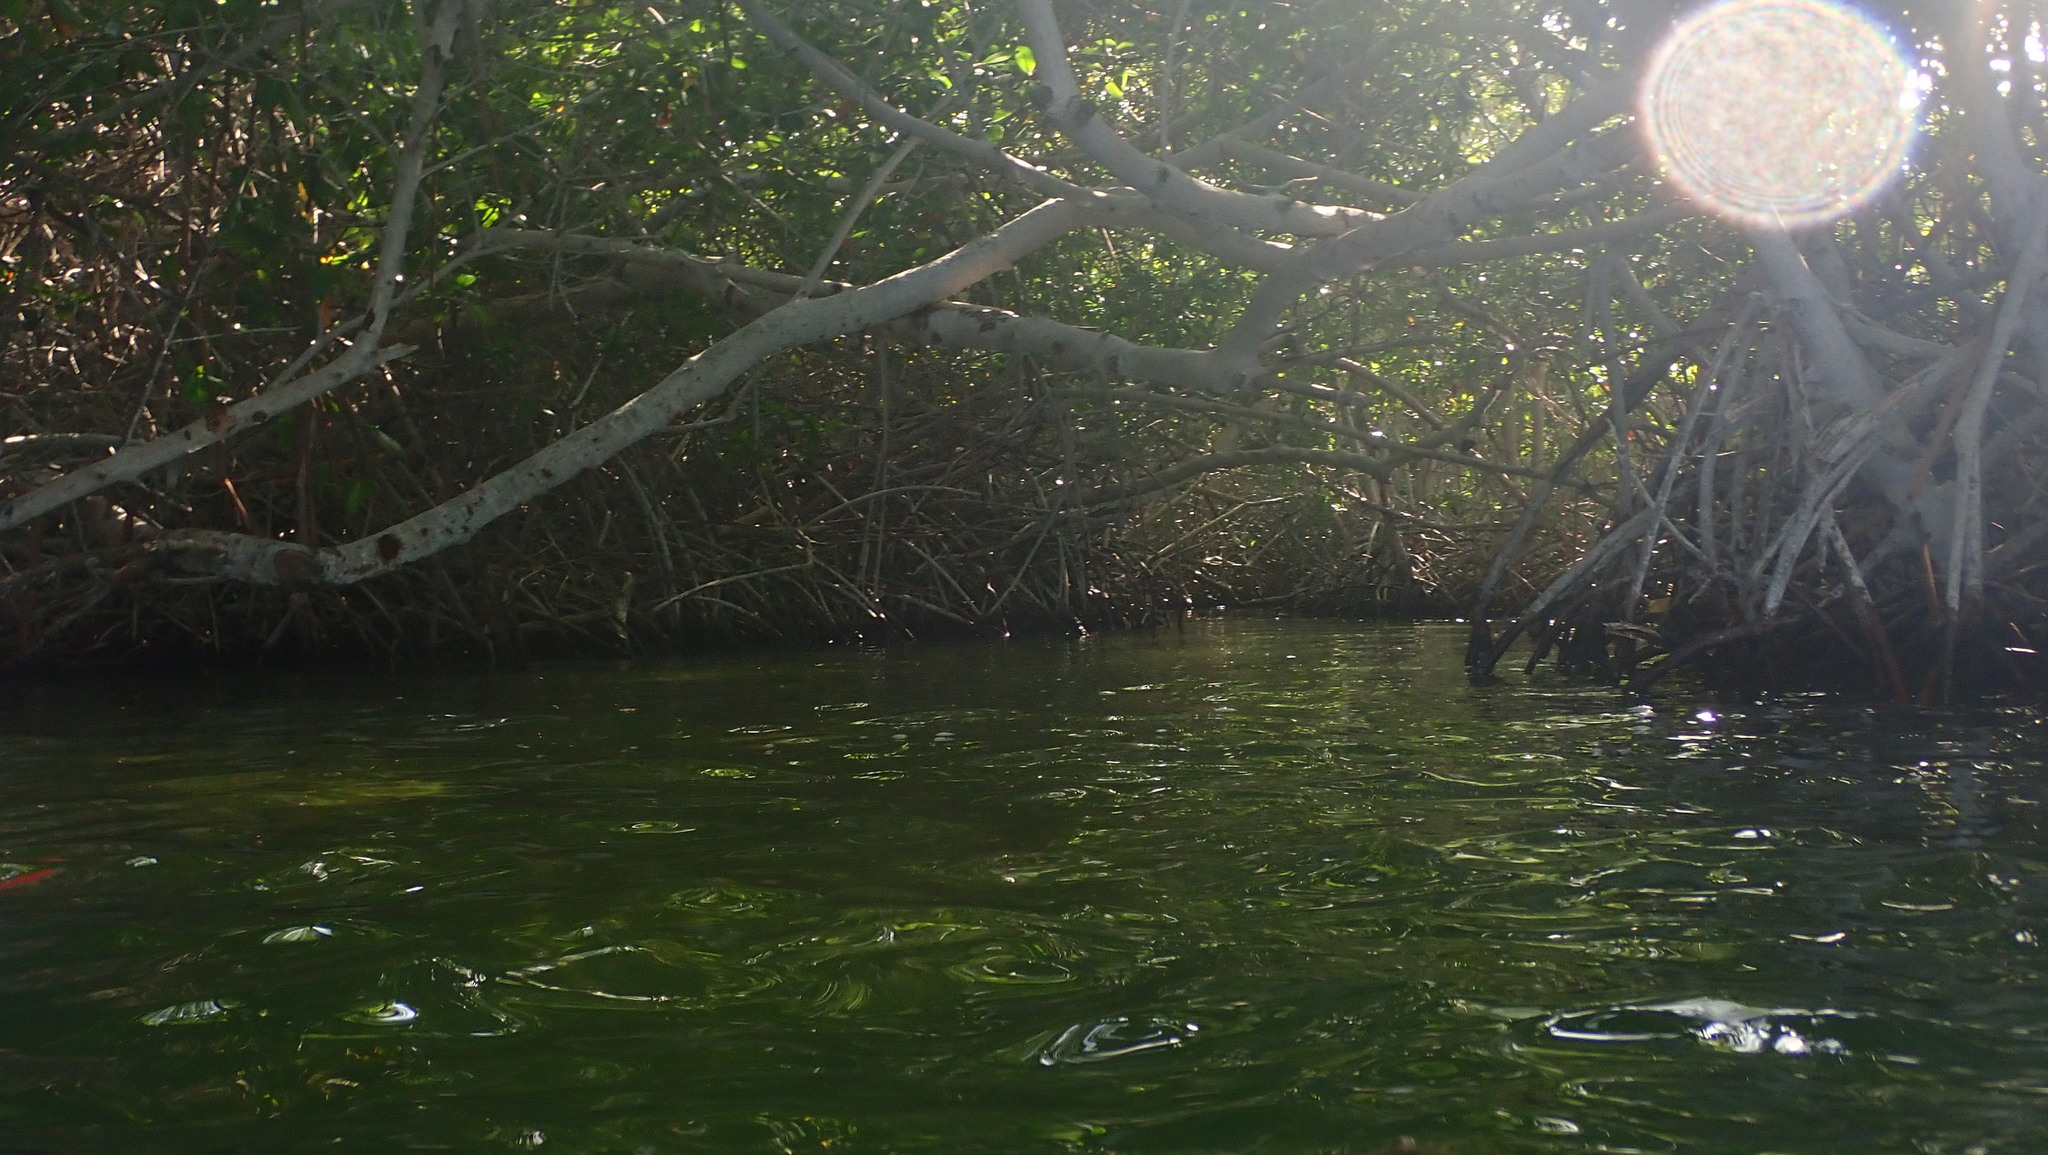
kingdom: Plantae
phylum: Tracheophyta
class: Magnoliopsida
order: Malpighiales
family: Rhizophoraceae
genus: Rhizophora
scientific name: Rhizophora mangle
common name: Red mangrove
